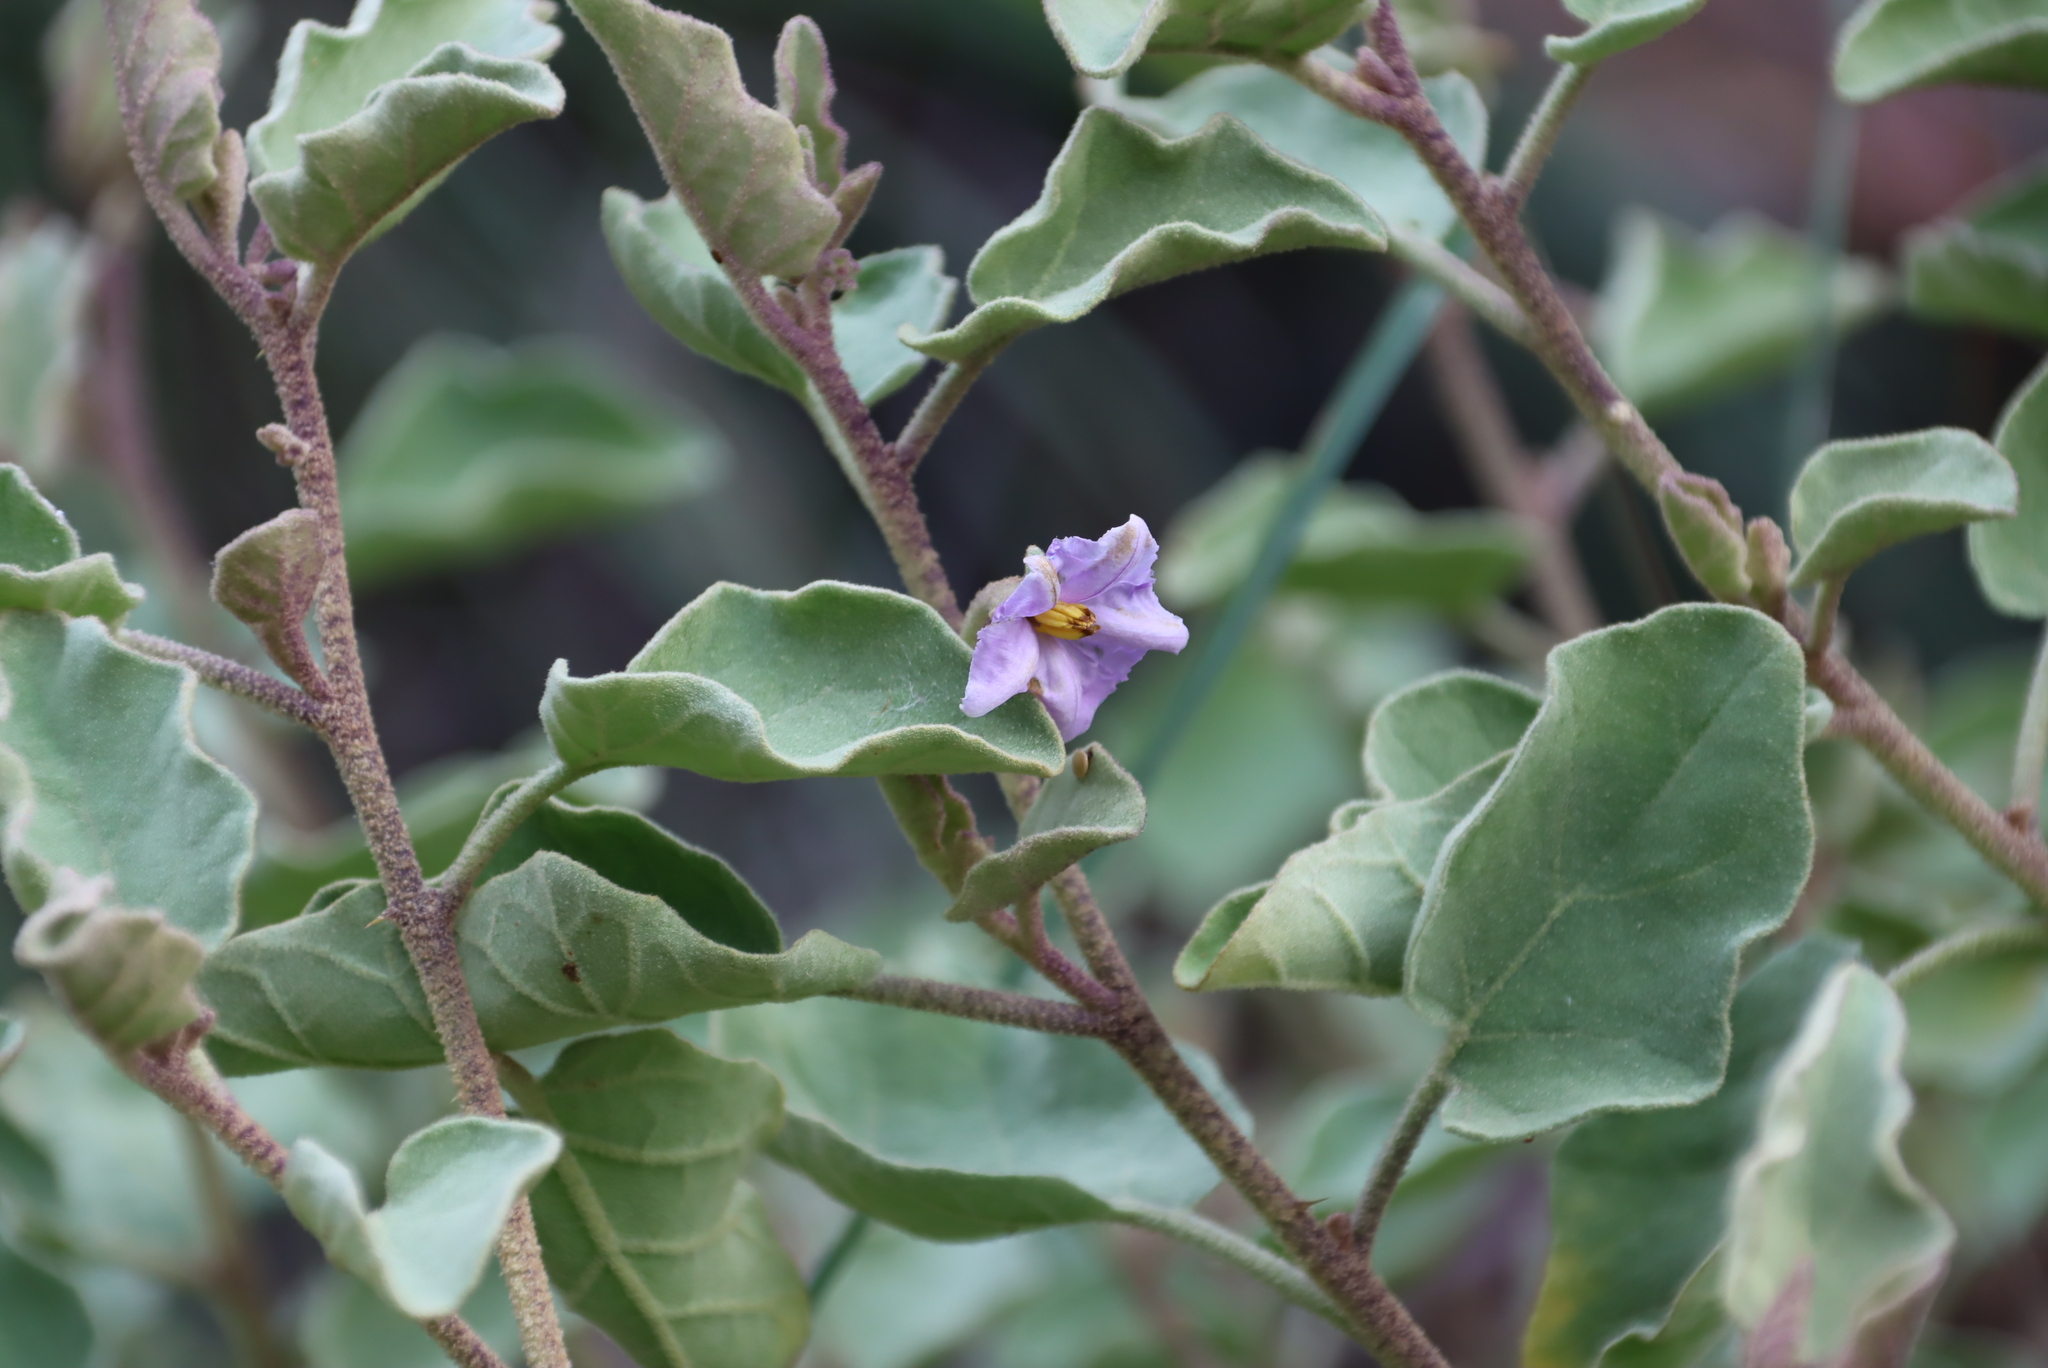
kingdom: Plantae
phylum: Tracheophyta
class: Magnoliopsida
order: Solanales
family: Solanaceae
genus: Solanum
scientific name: Solanum tomentosum
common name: Wild aubergine
